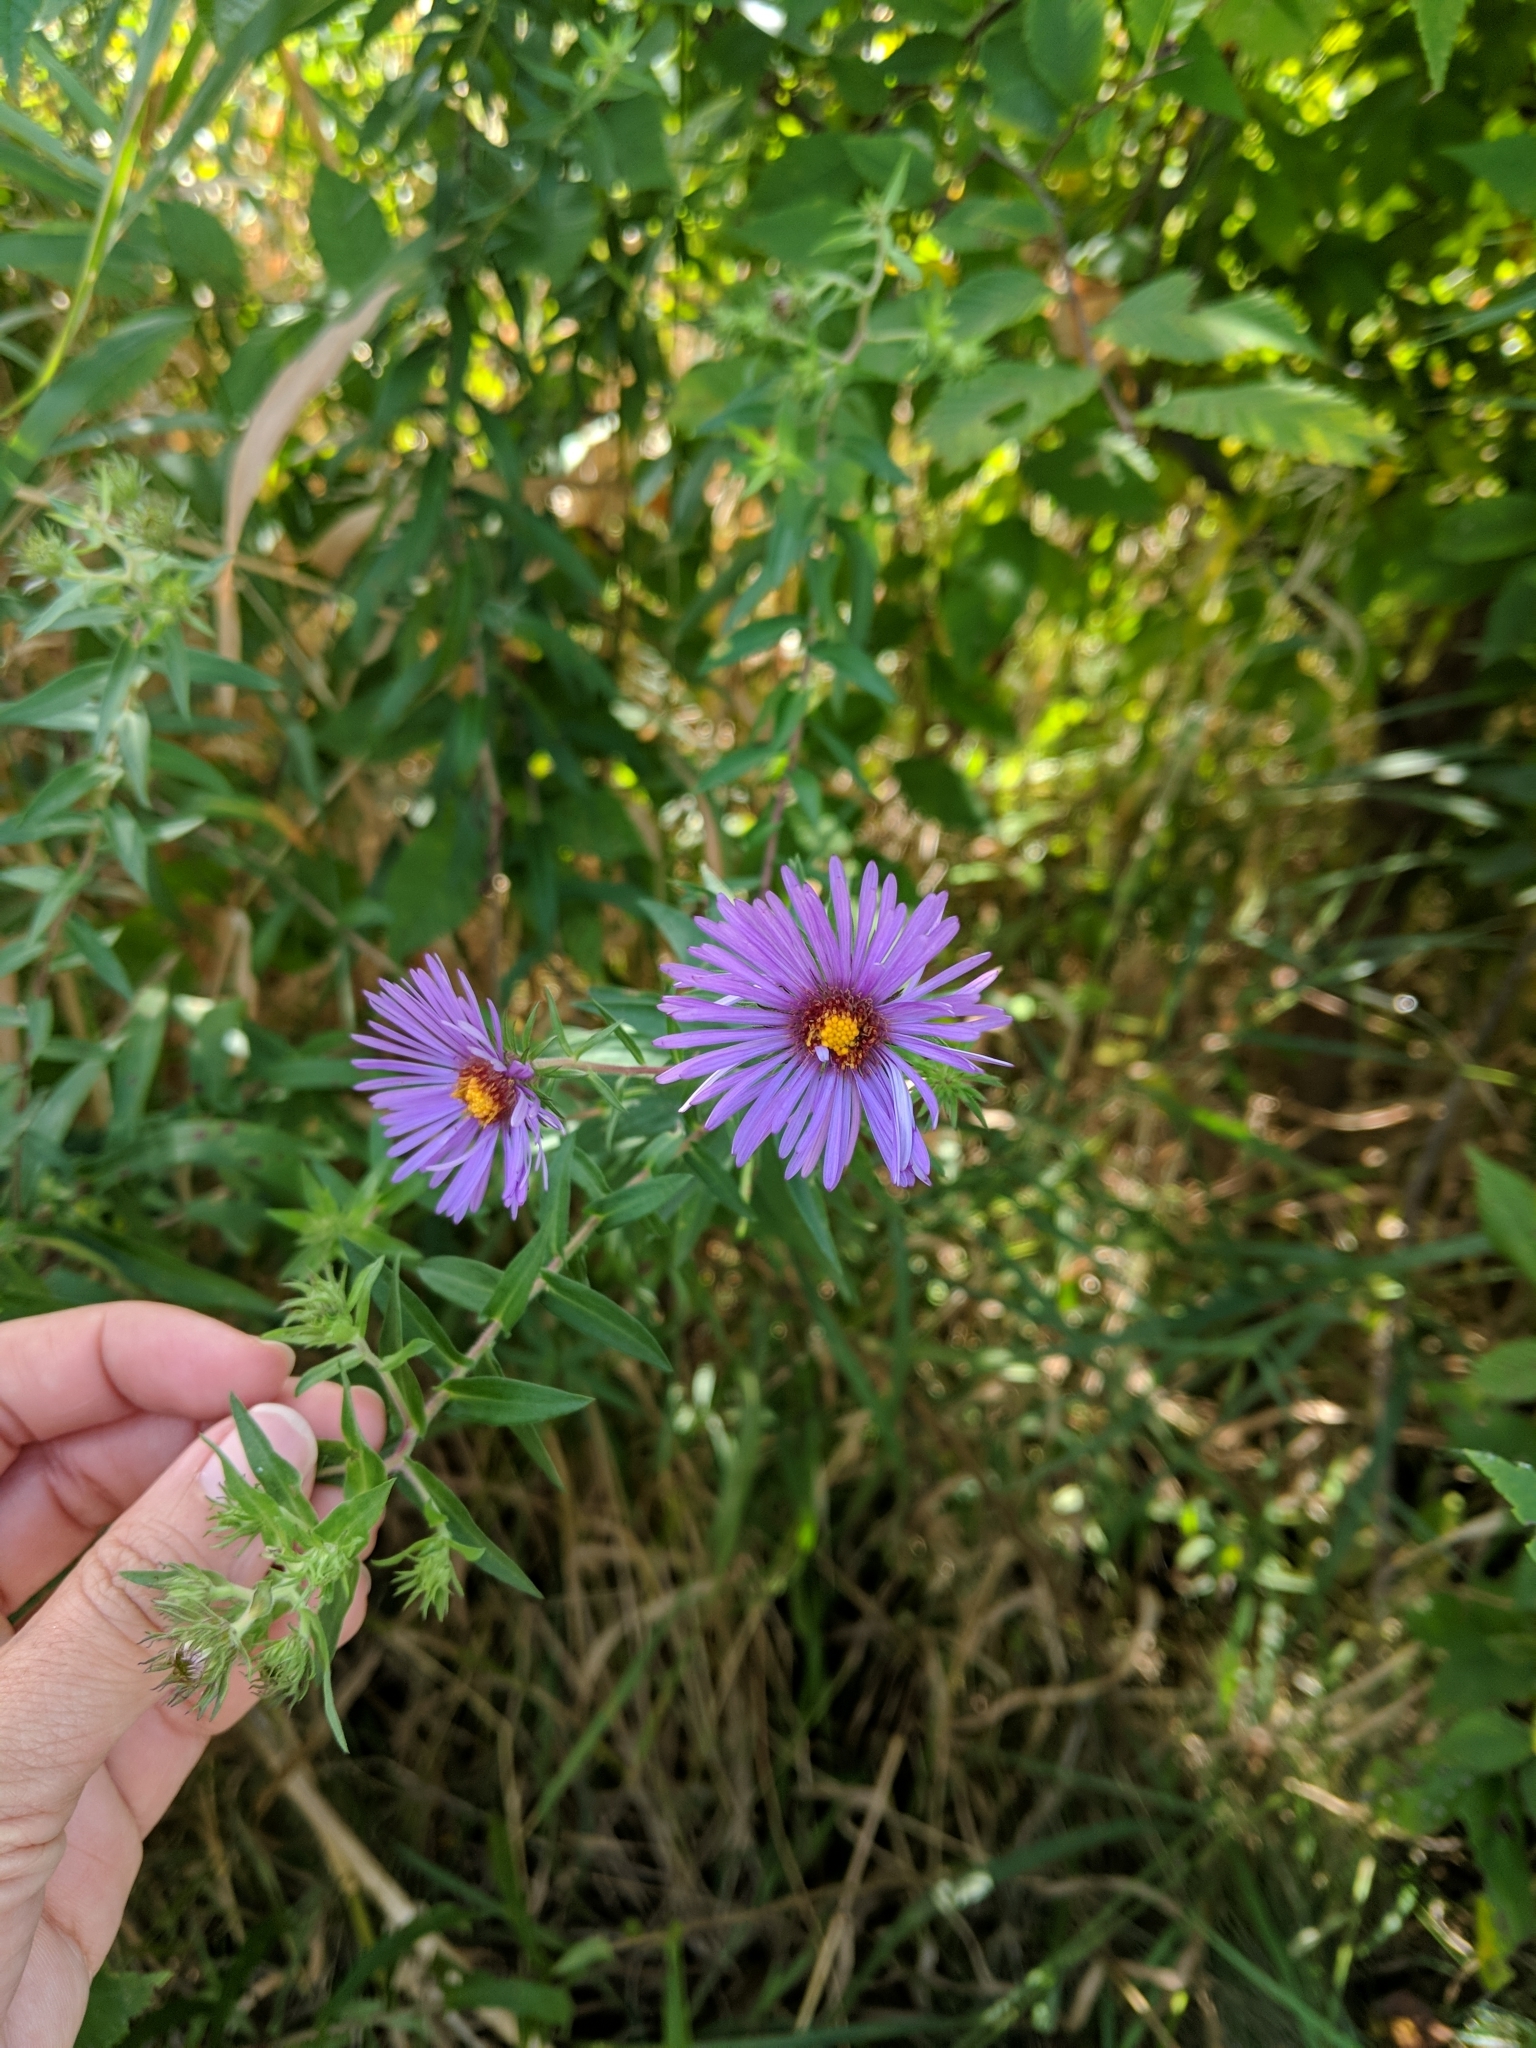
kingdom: Plantae
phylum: Tracheophyta
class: Magnoliopsida
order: Asterales
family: Asteraceae
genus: Symphyotrichum
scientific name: Symphyotrichum novae-angliae
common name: Michaelmas daisy
